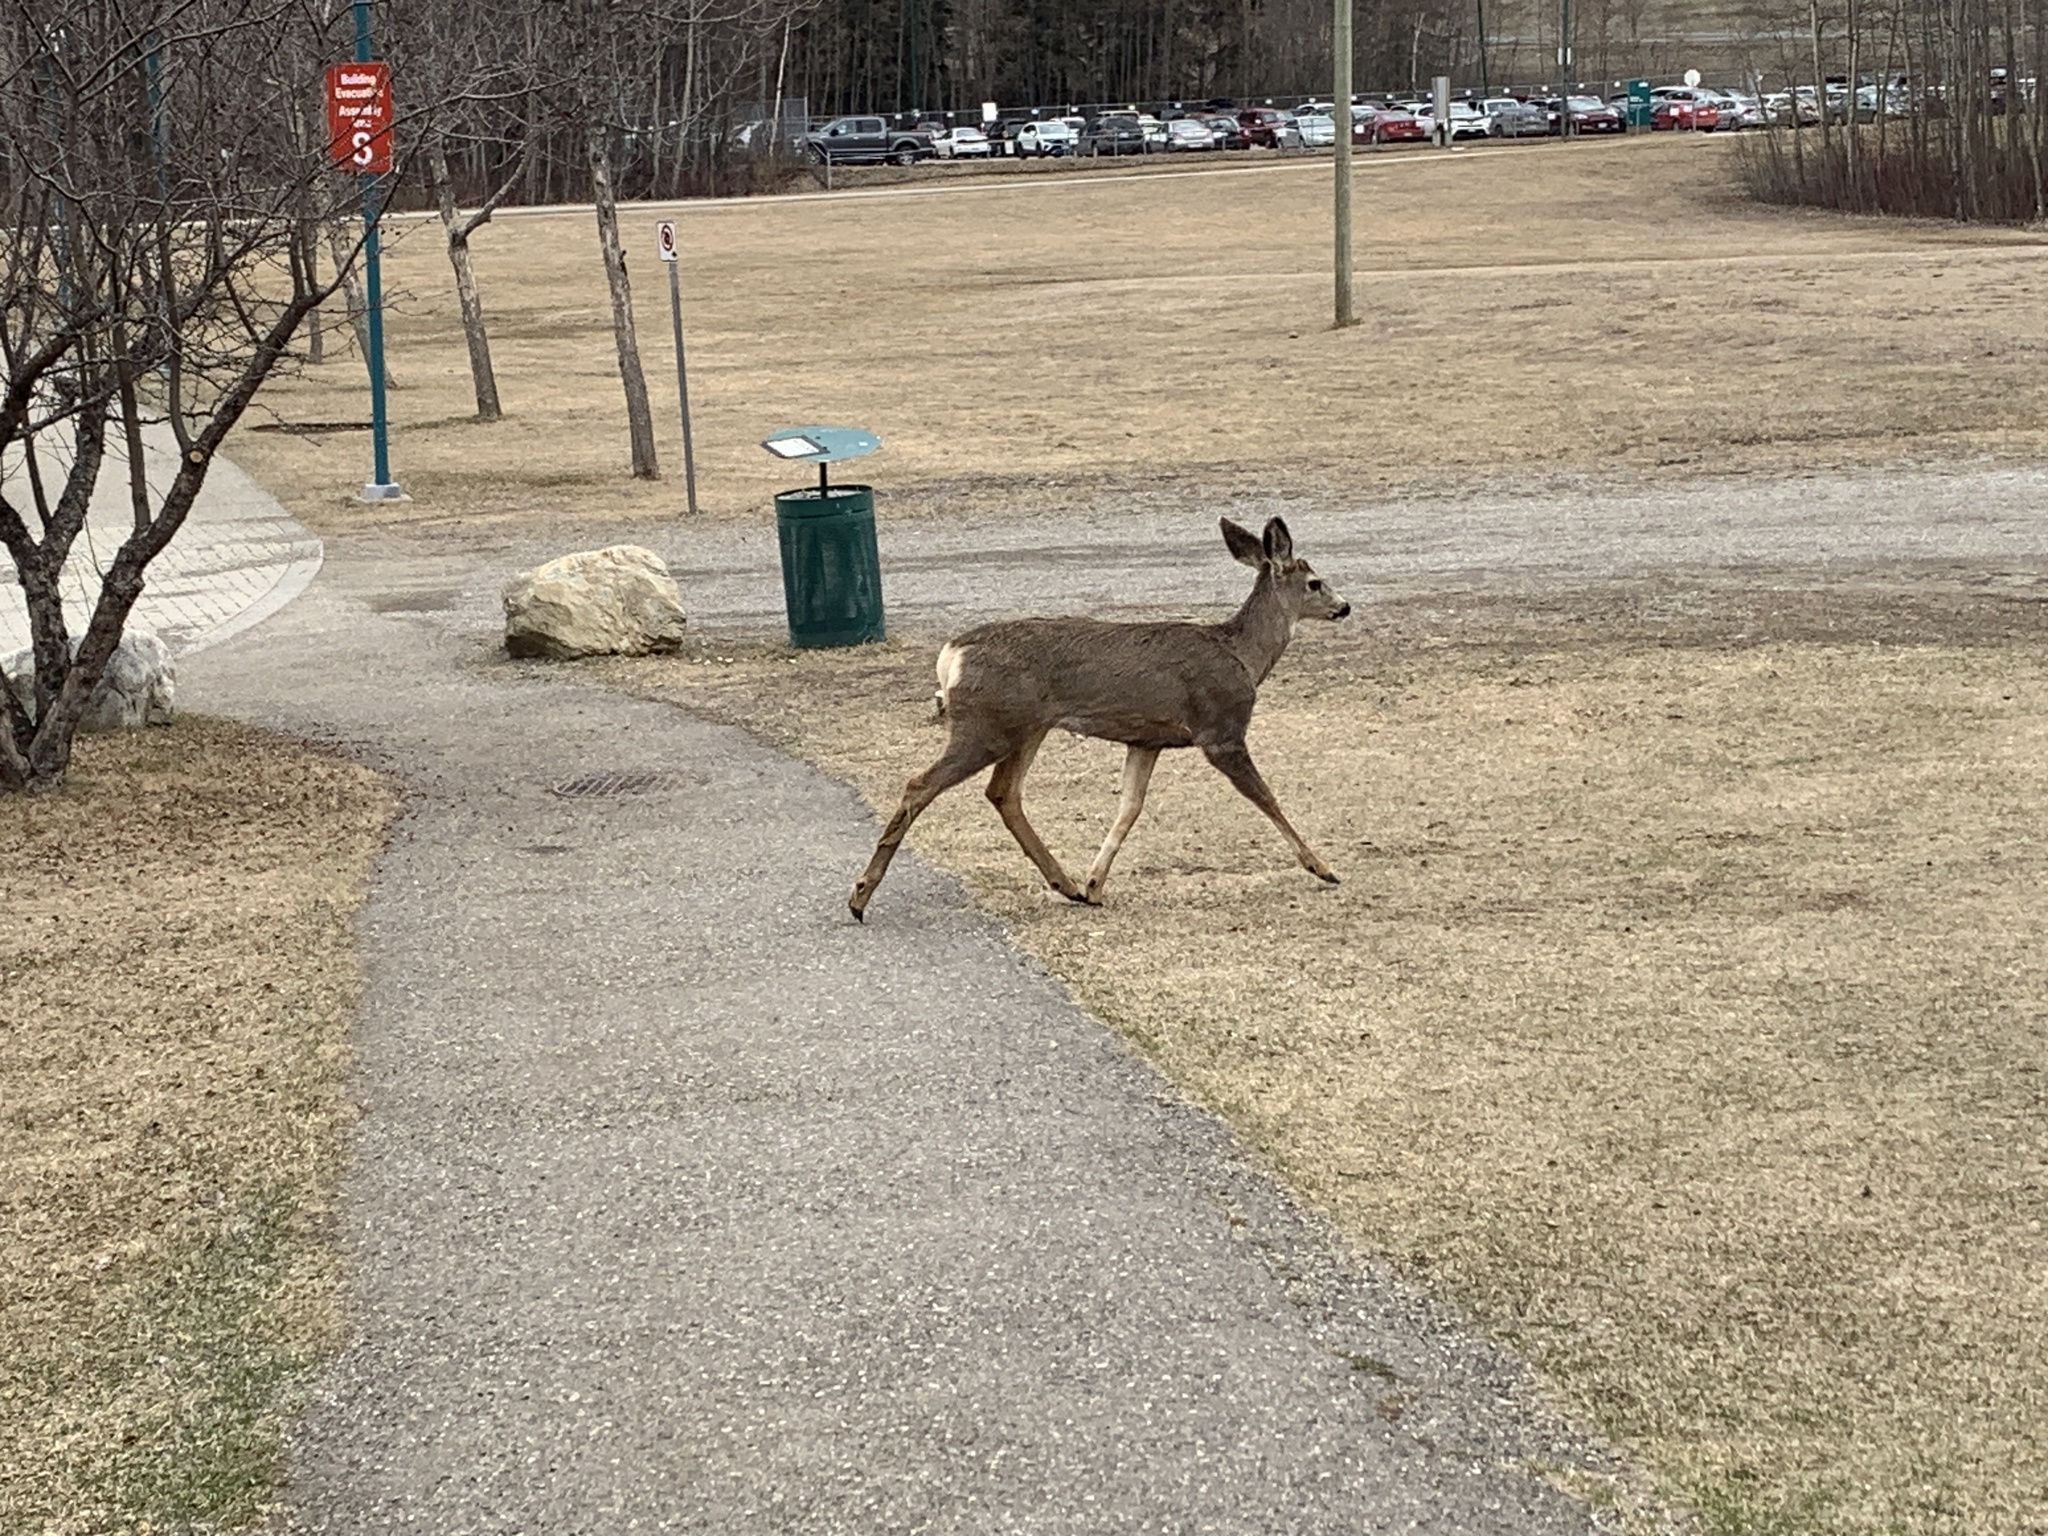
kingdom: Animalia
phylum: Chordata
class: Mammalia
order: Artiodactyla
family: Cervidae
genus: Odocoileus
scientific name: Odocoileus hemionus
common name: Mule deer
